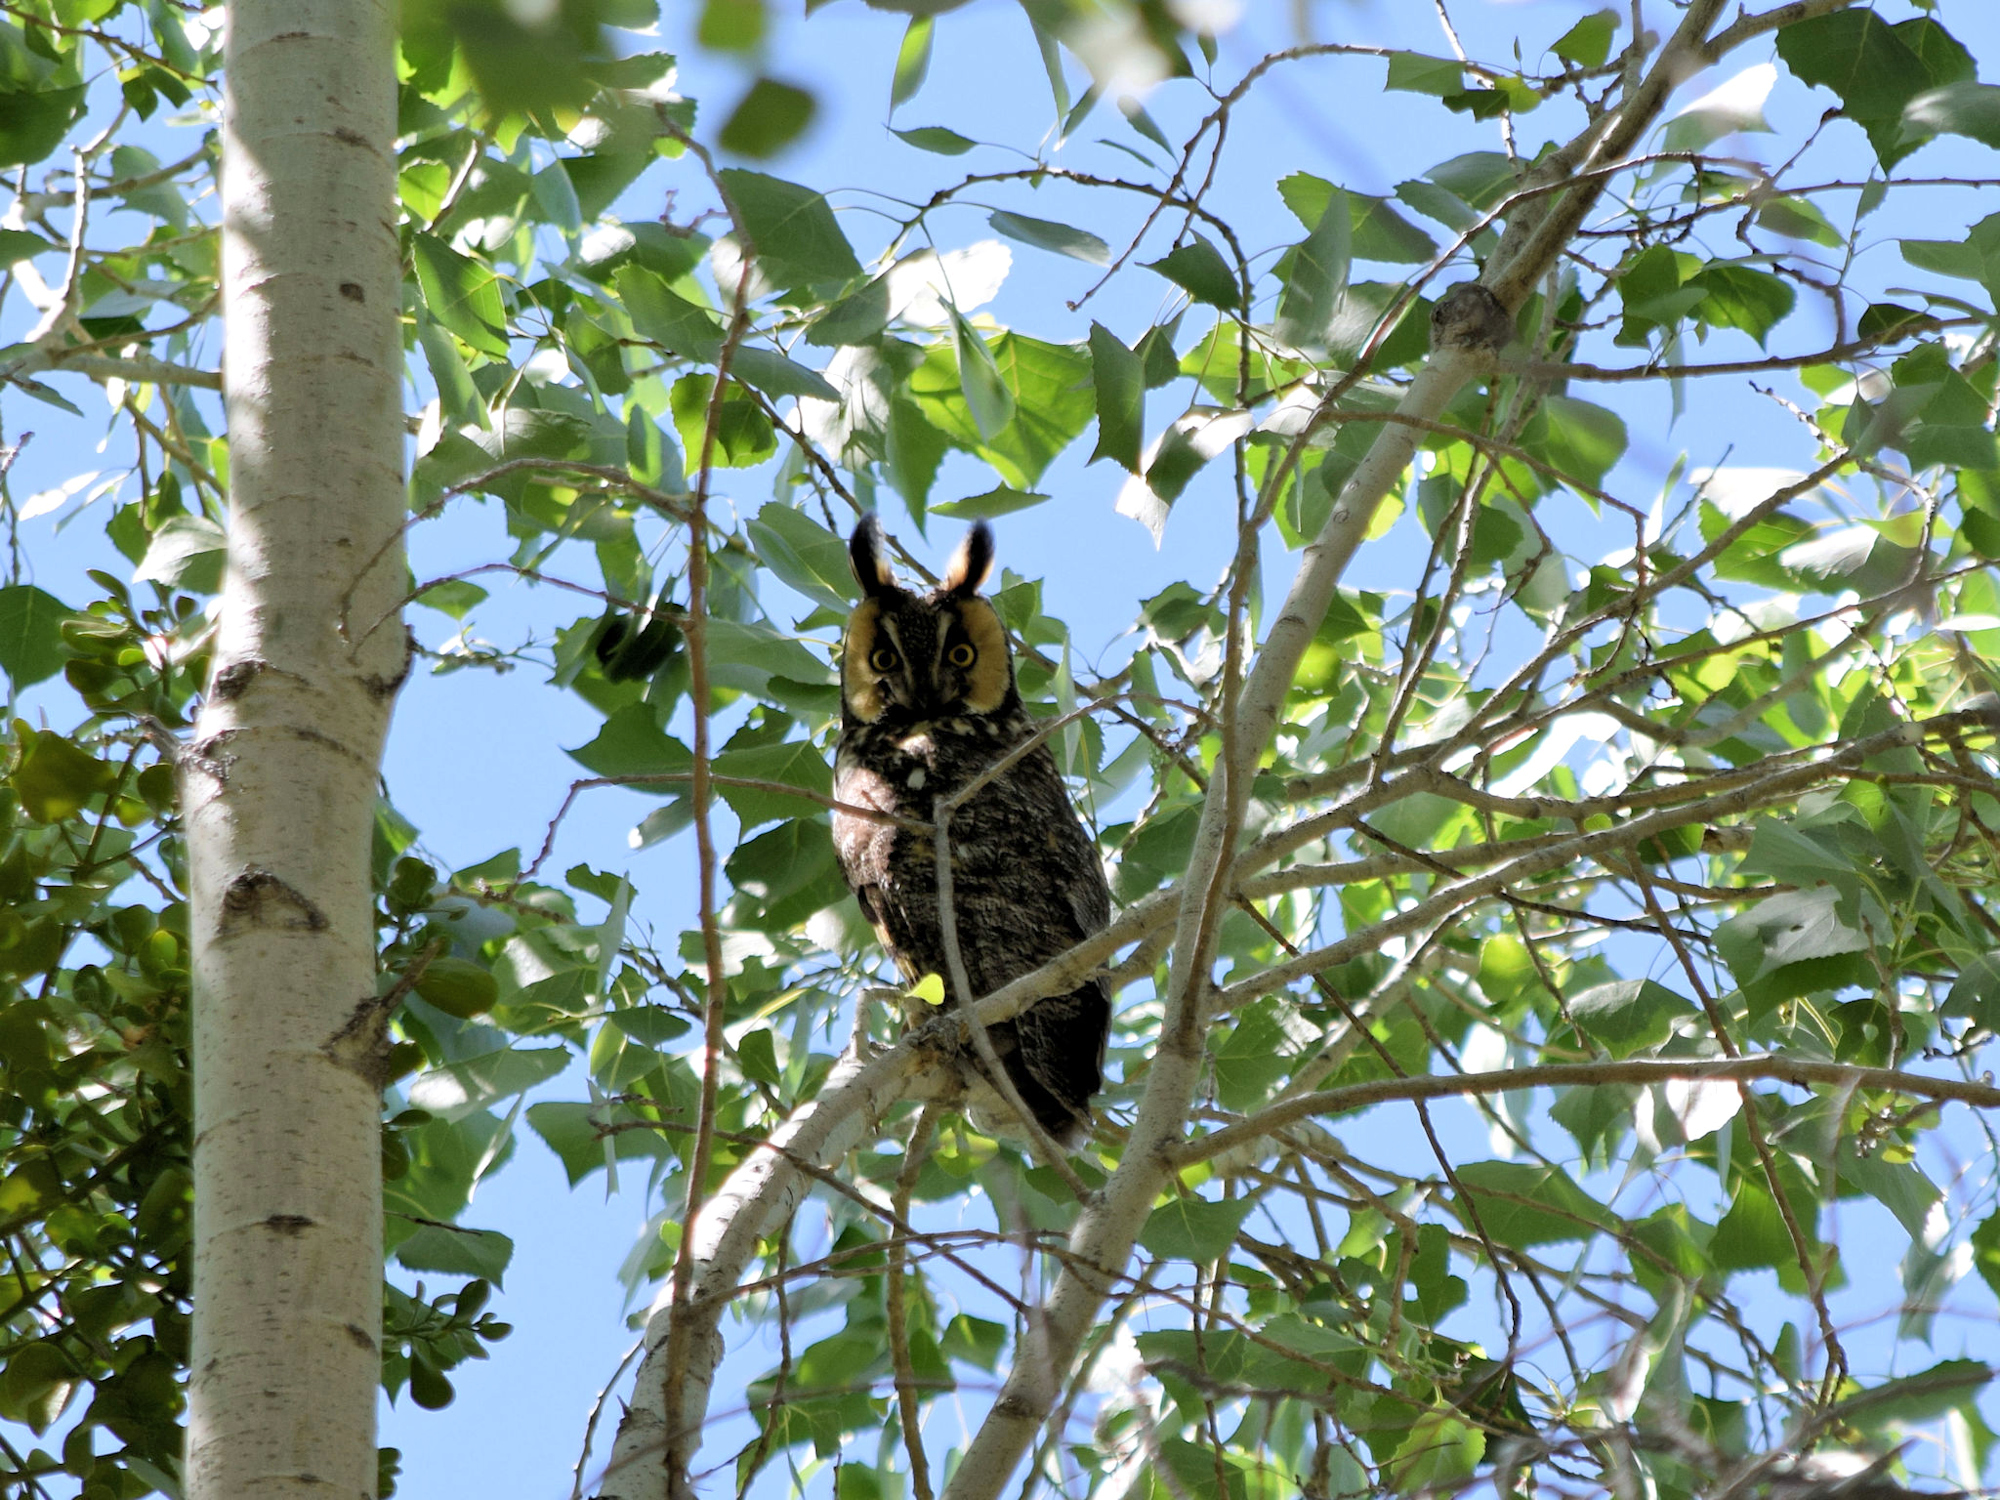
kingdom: Animalia
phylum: Chordata
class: Aves
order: Strigiformes
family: Strigidae
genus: Asio
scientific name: Asio otus
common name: Long-eared owl
